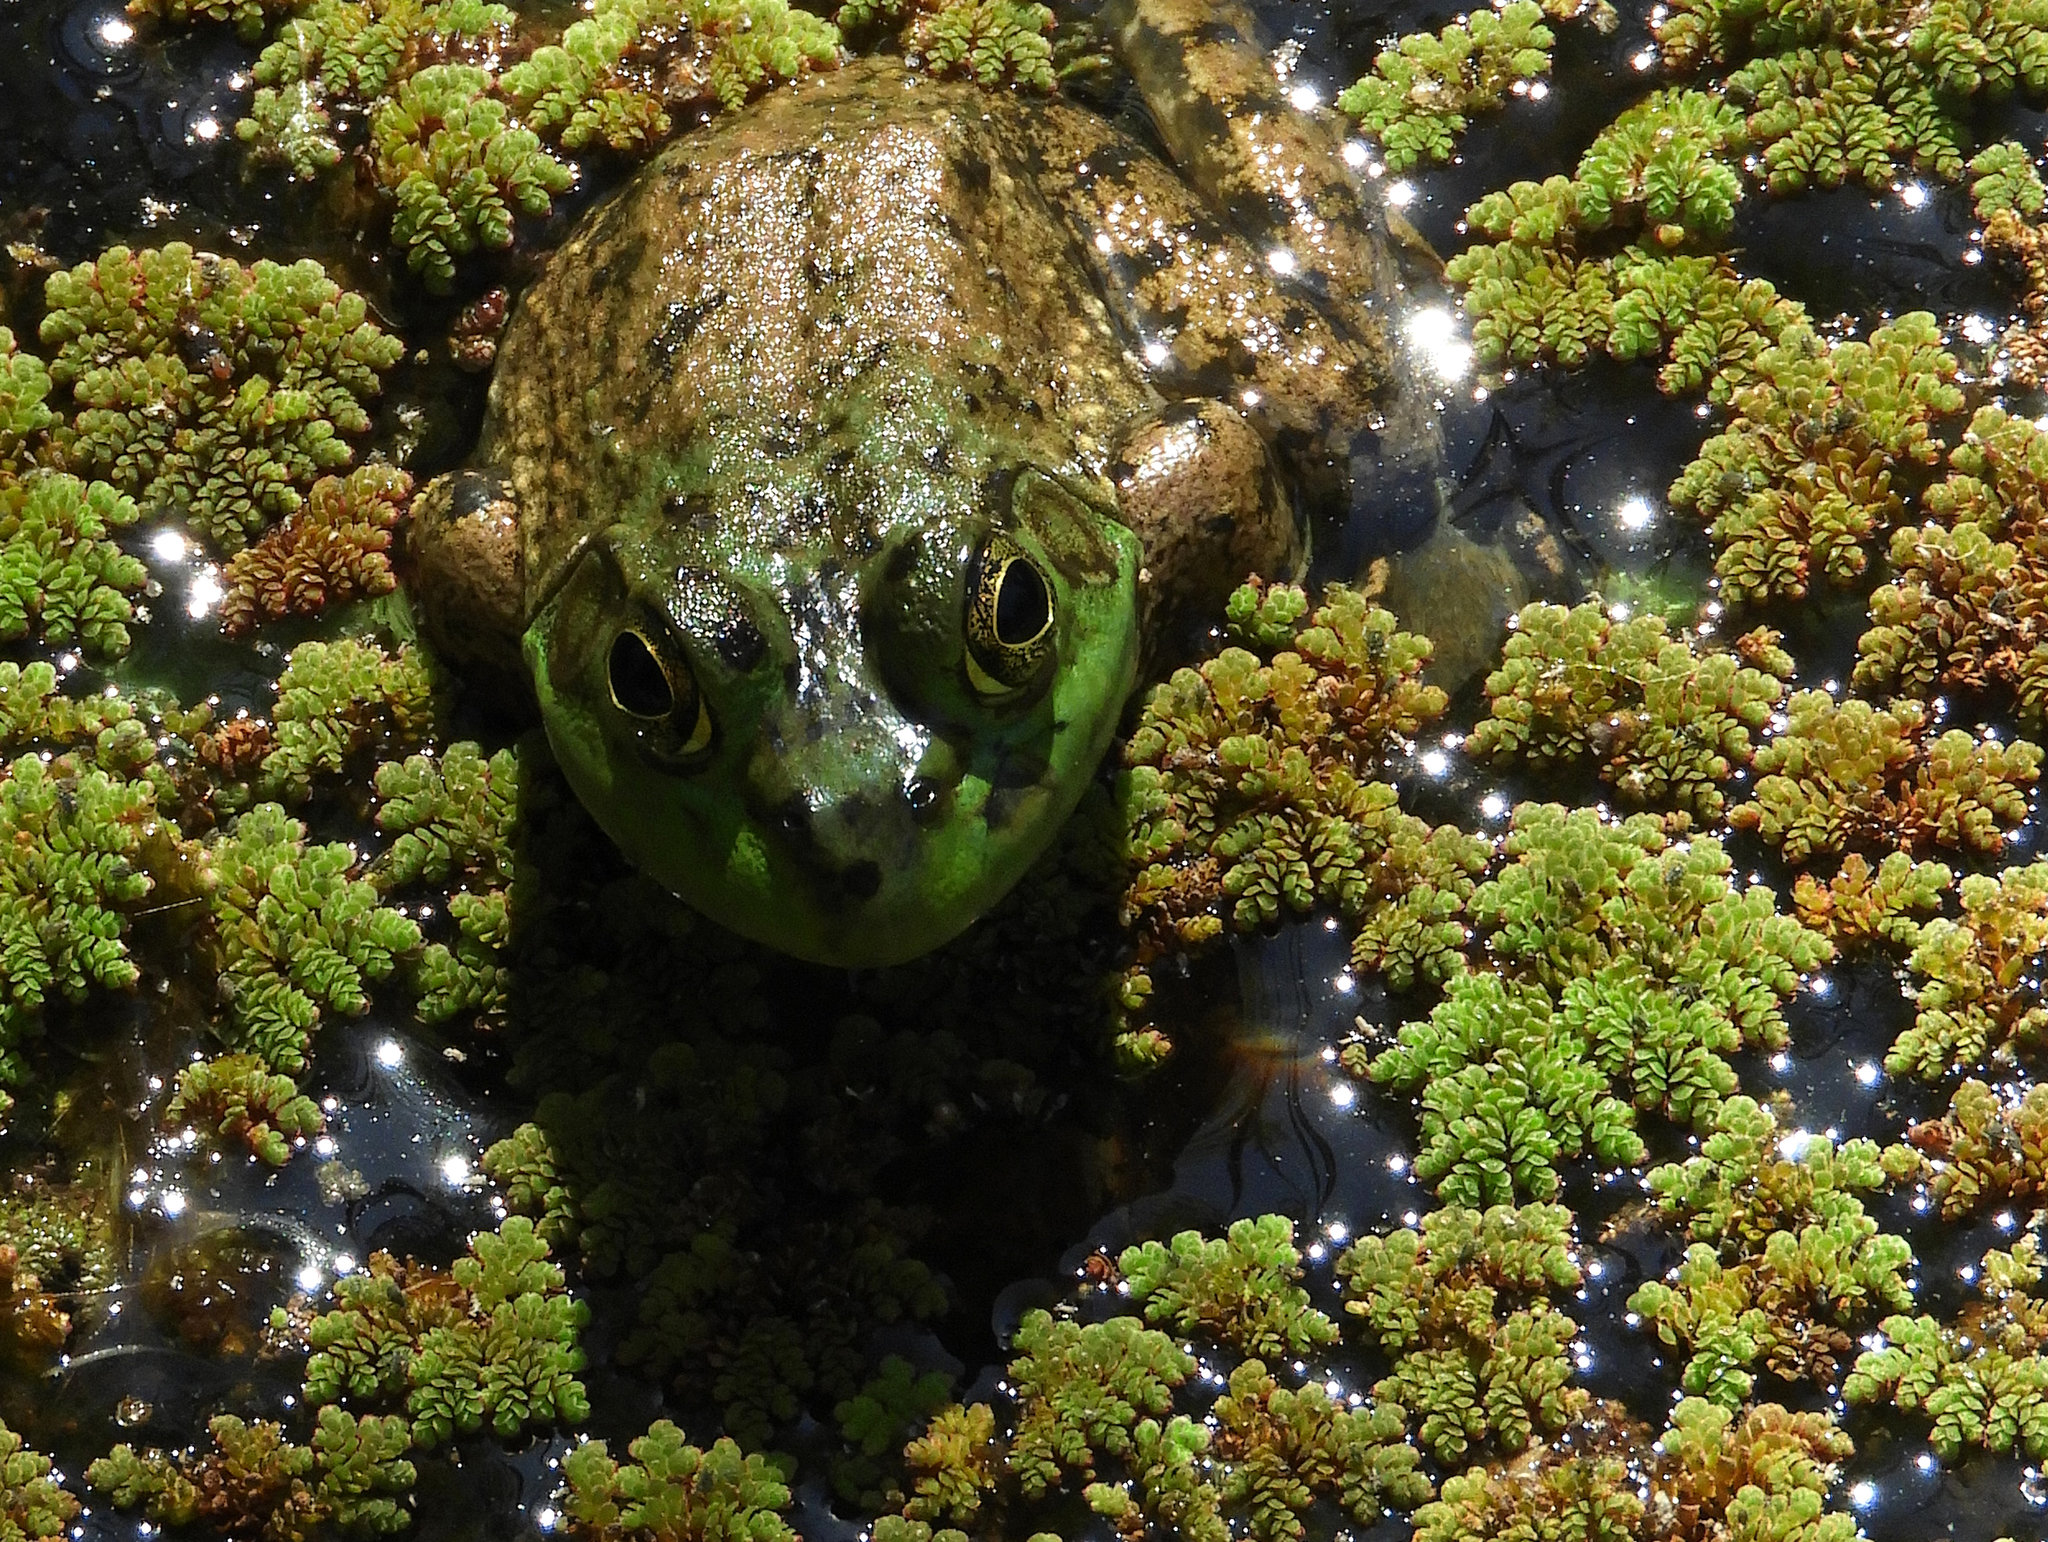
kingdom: Animalia
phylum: Chordata
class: Amphibia
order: Anura
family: Ranidae
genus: Lithobates
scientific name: Lithobates catesbeianus
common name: American bullfrog
